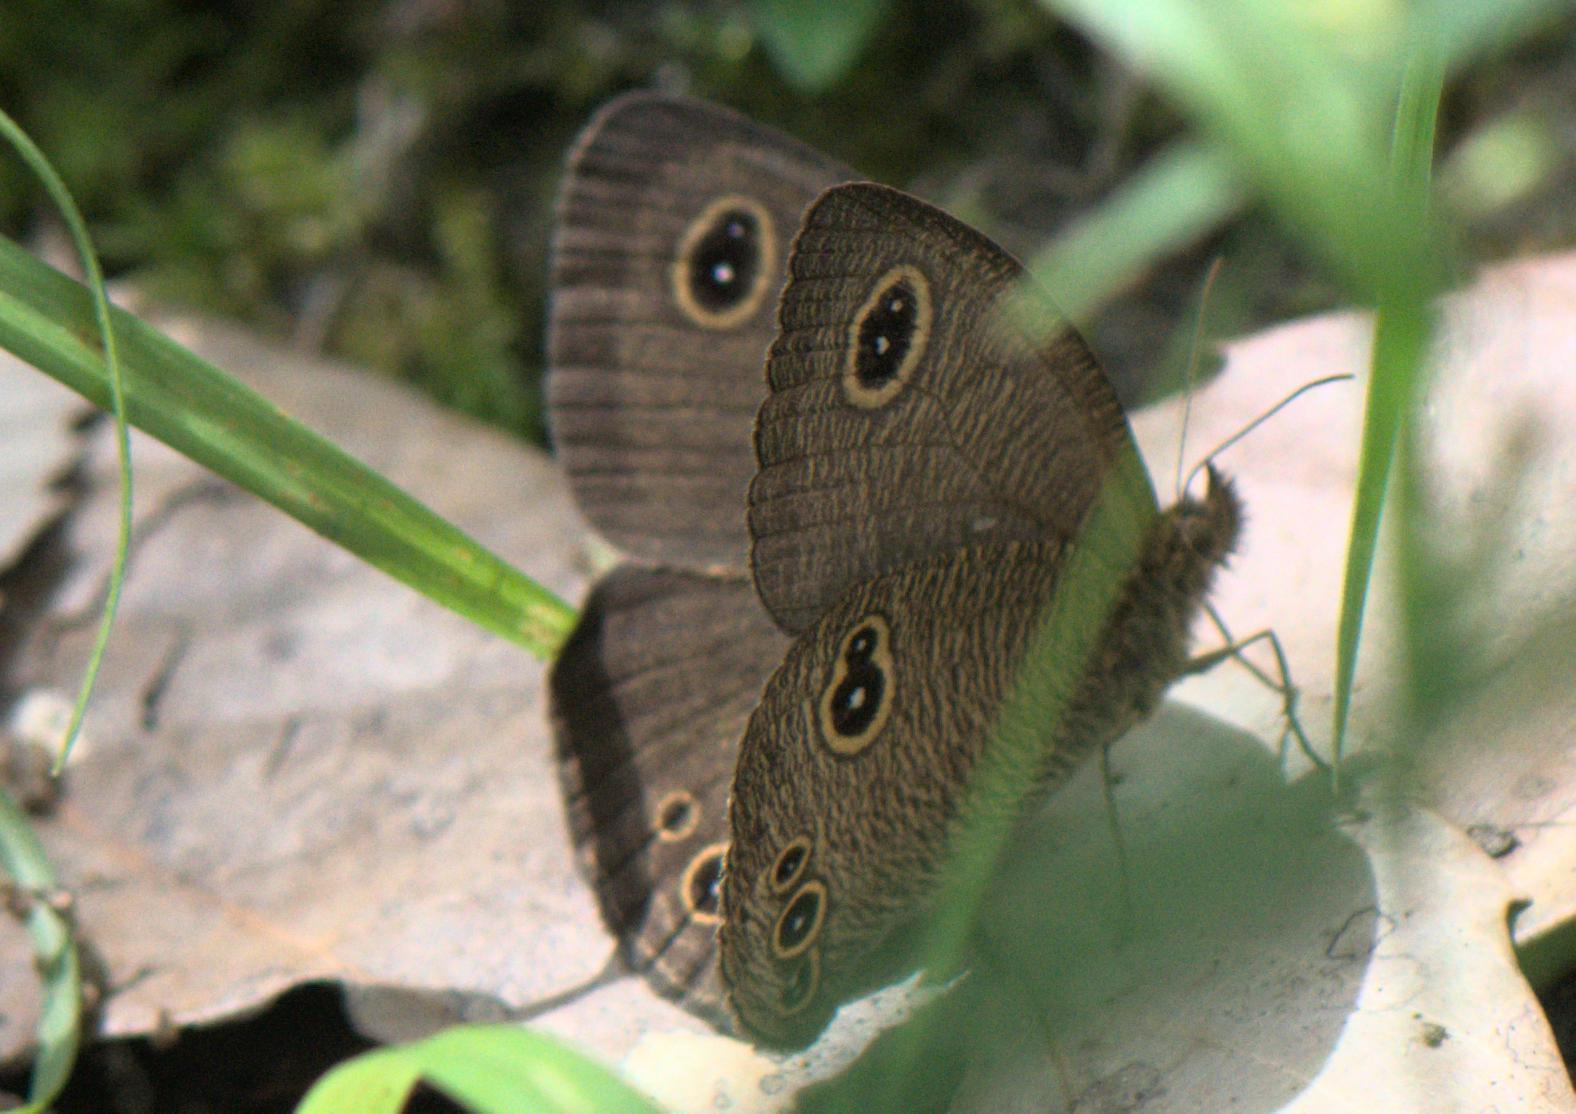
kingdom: Animalia
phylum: Arthropoda
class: Insecta
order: Lepidoptera
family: Nymphalidae
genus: Ypthima
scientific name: Ypthima nikaea
